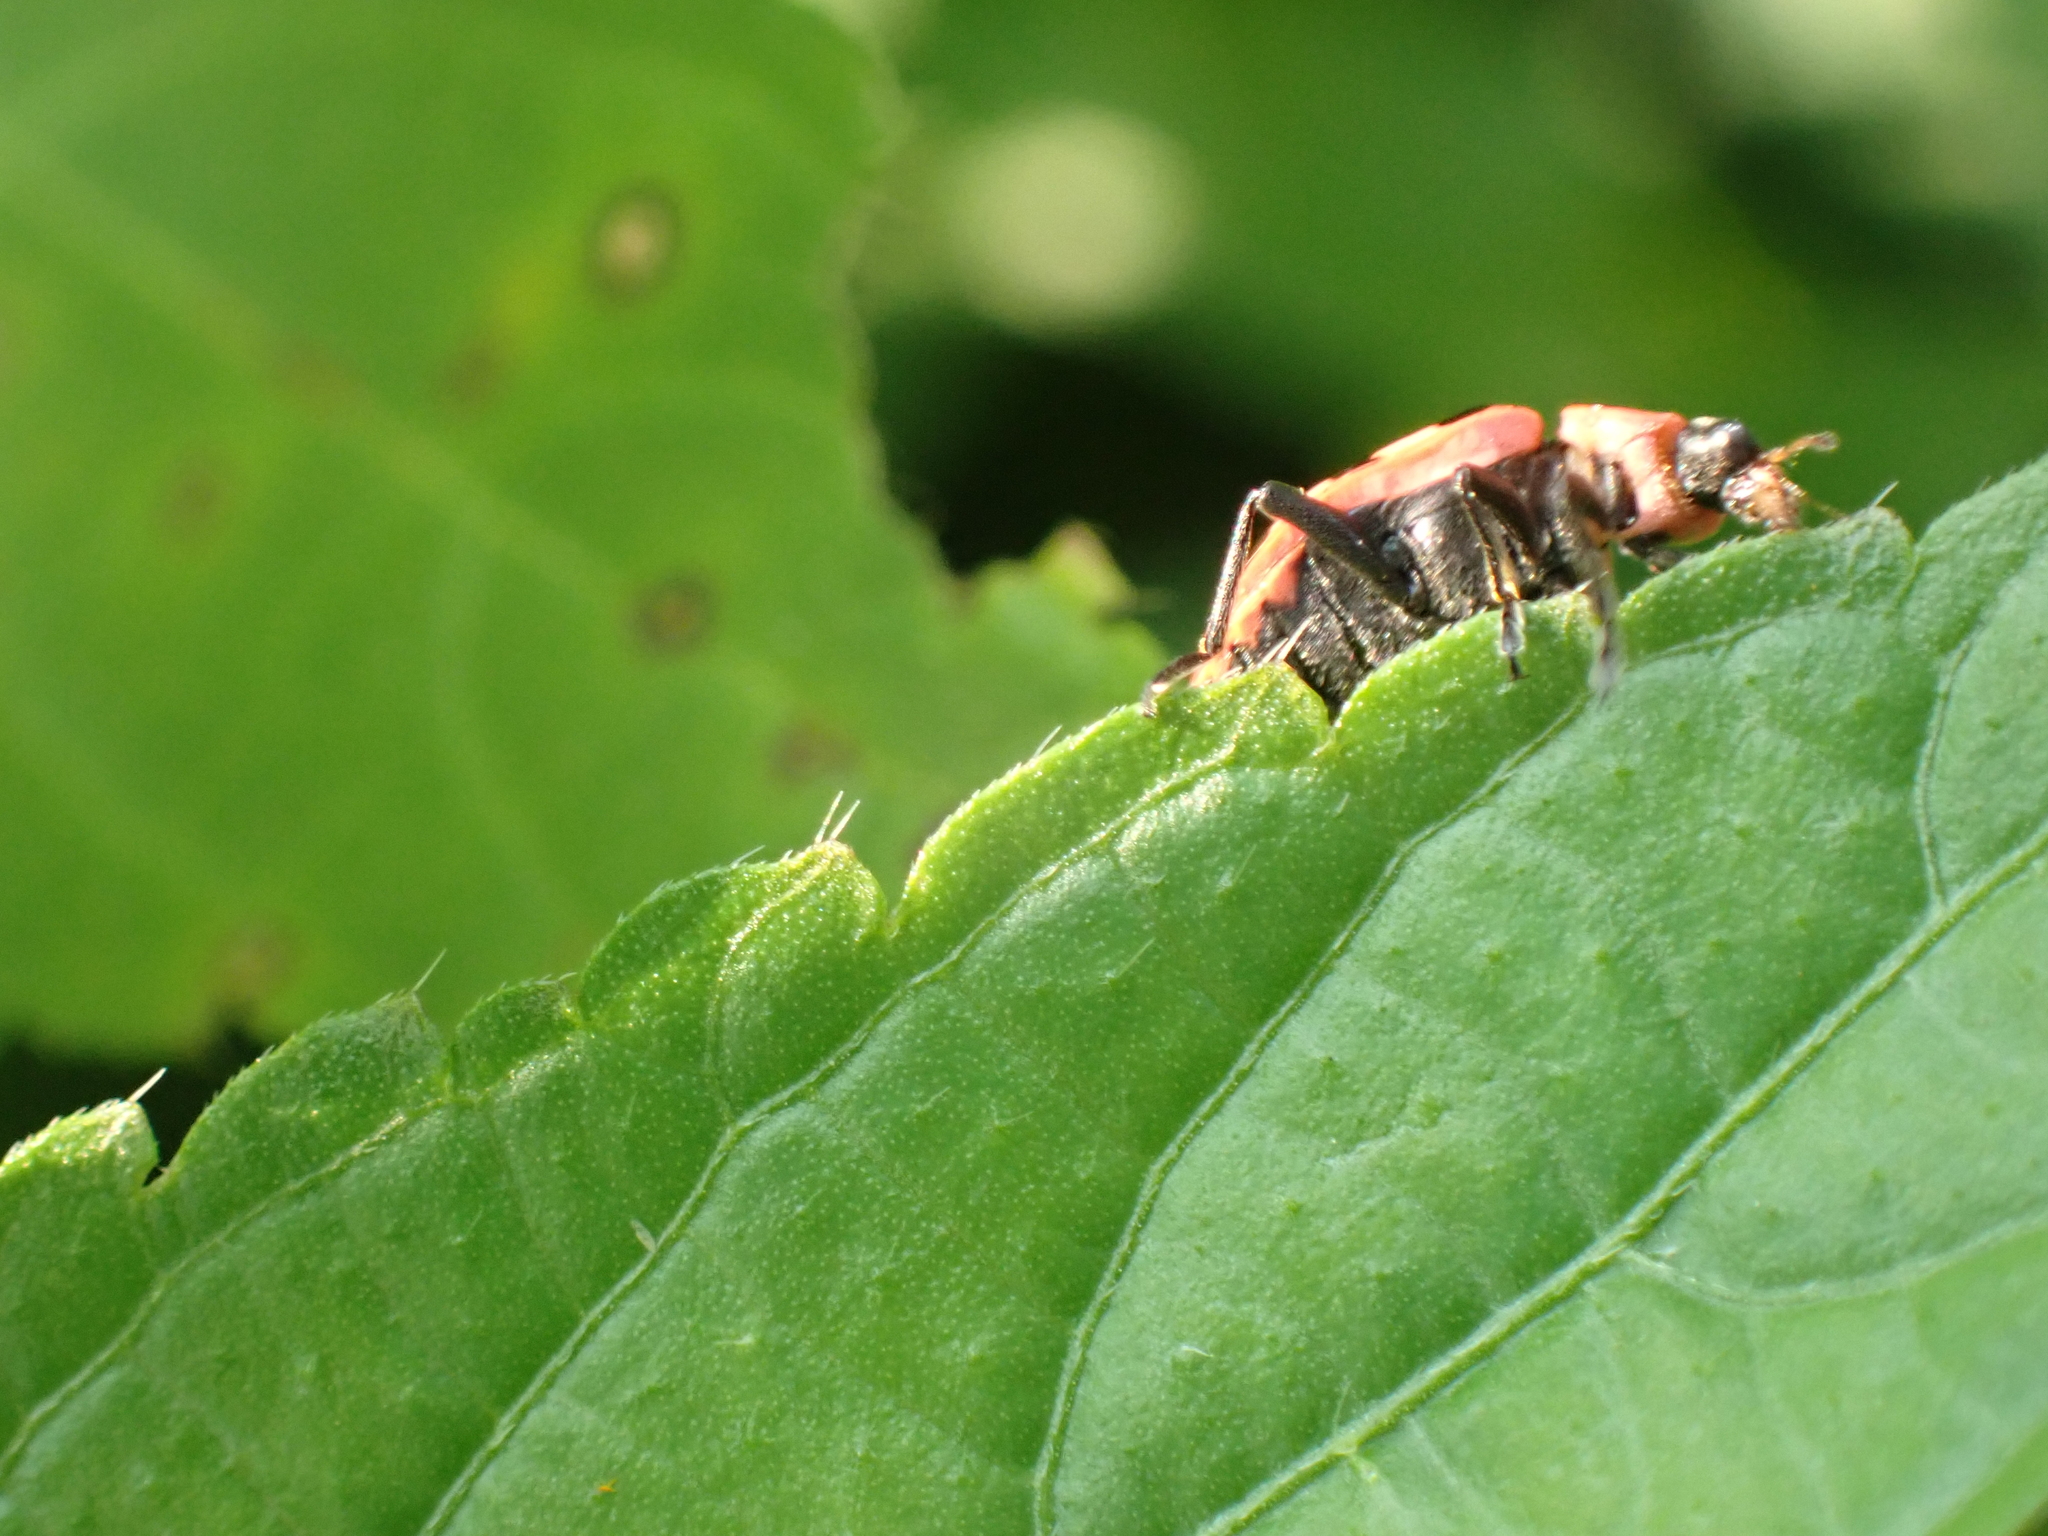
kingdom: Animalia
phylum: Arthropoda
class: Insecta
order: Coleoptera
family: Coccinellidae
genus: Coleomegilla
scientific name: Coleomegilla maculata
